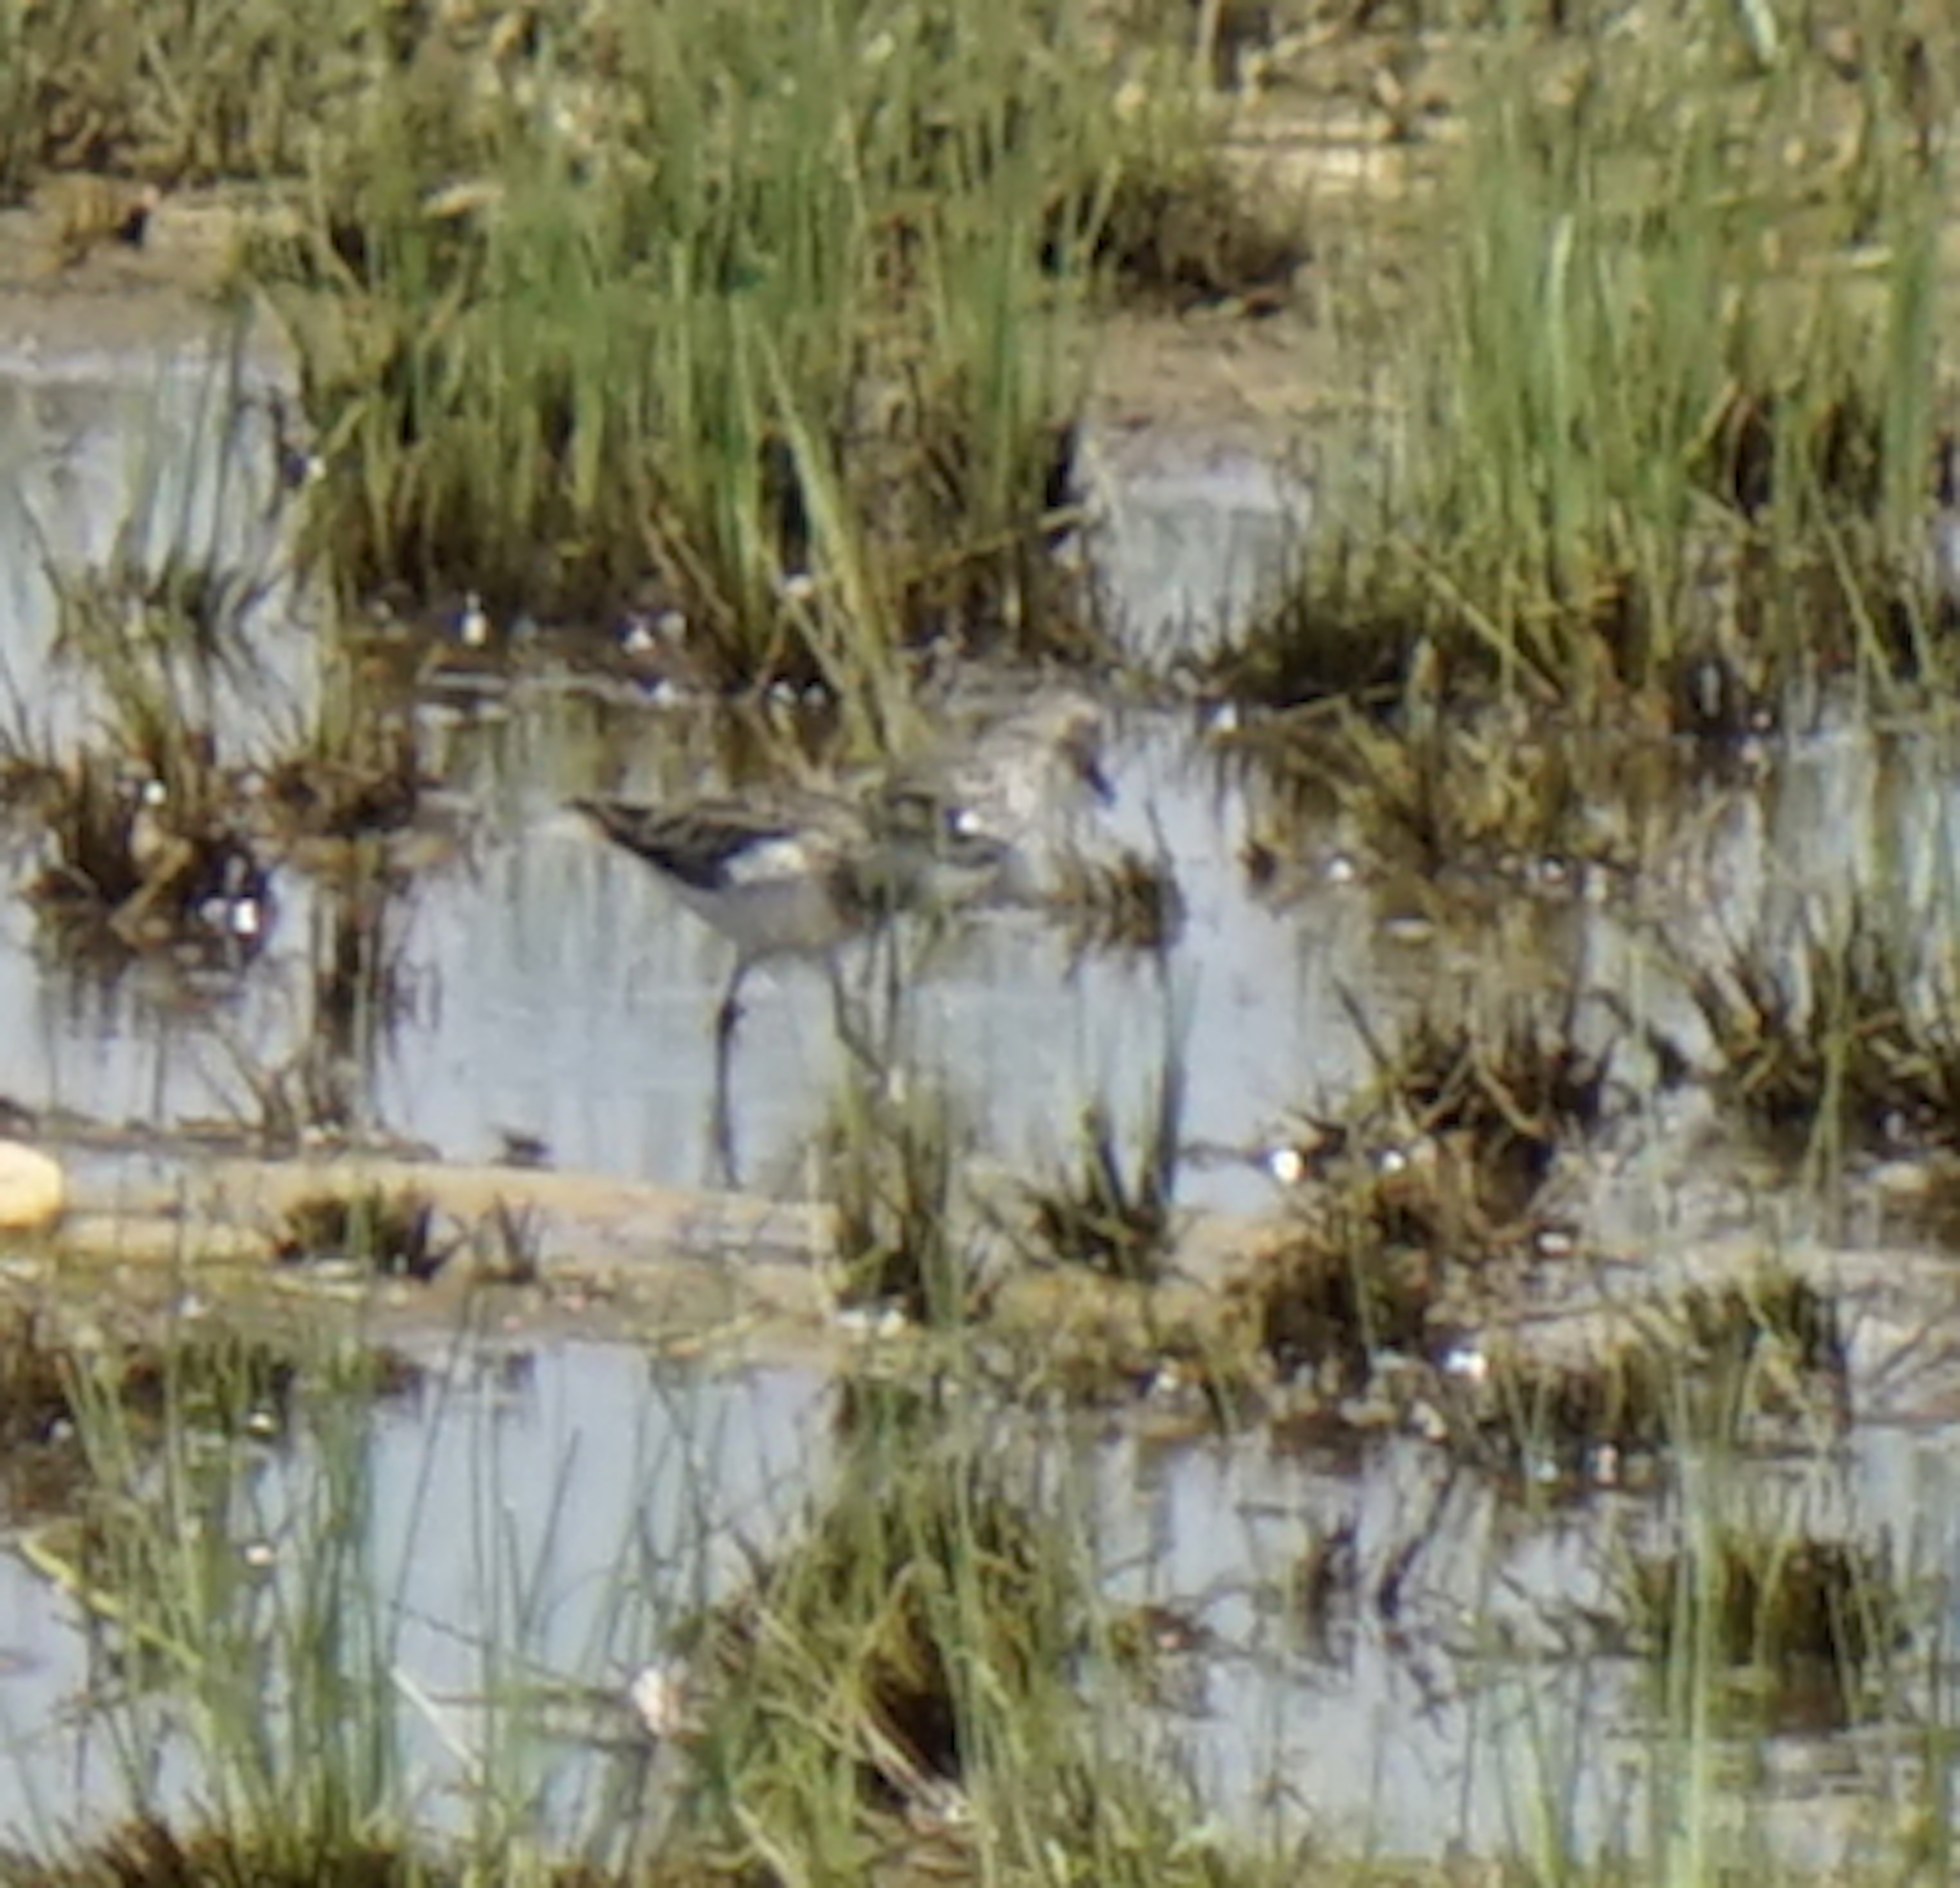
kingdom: Animalia
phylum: Chordata
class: Aves
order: Charadriiformes
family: Scolopacidae
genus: Calidris
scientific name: Calidris temminckii
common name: Temminck's stint
